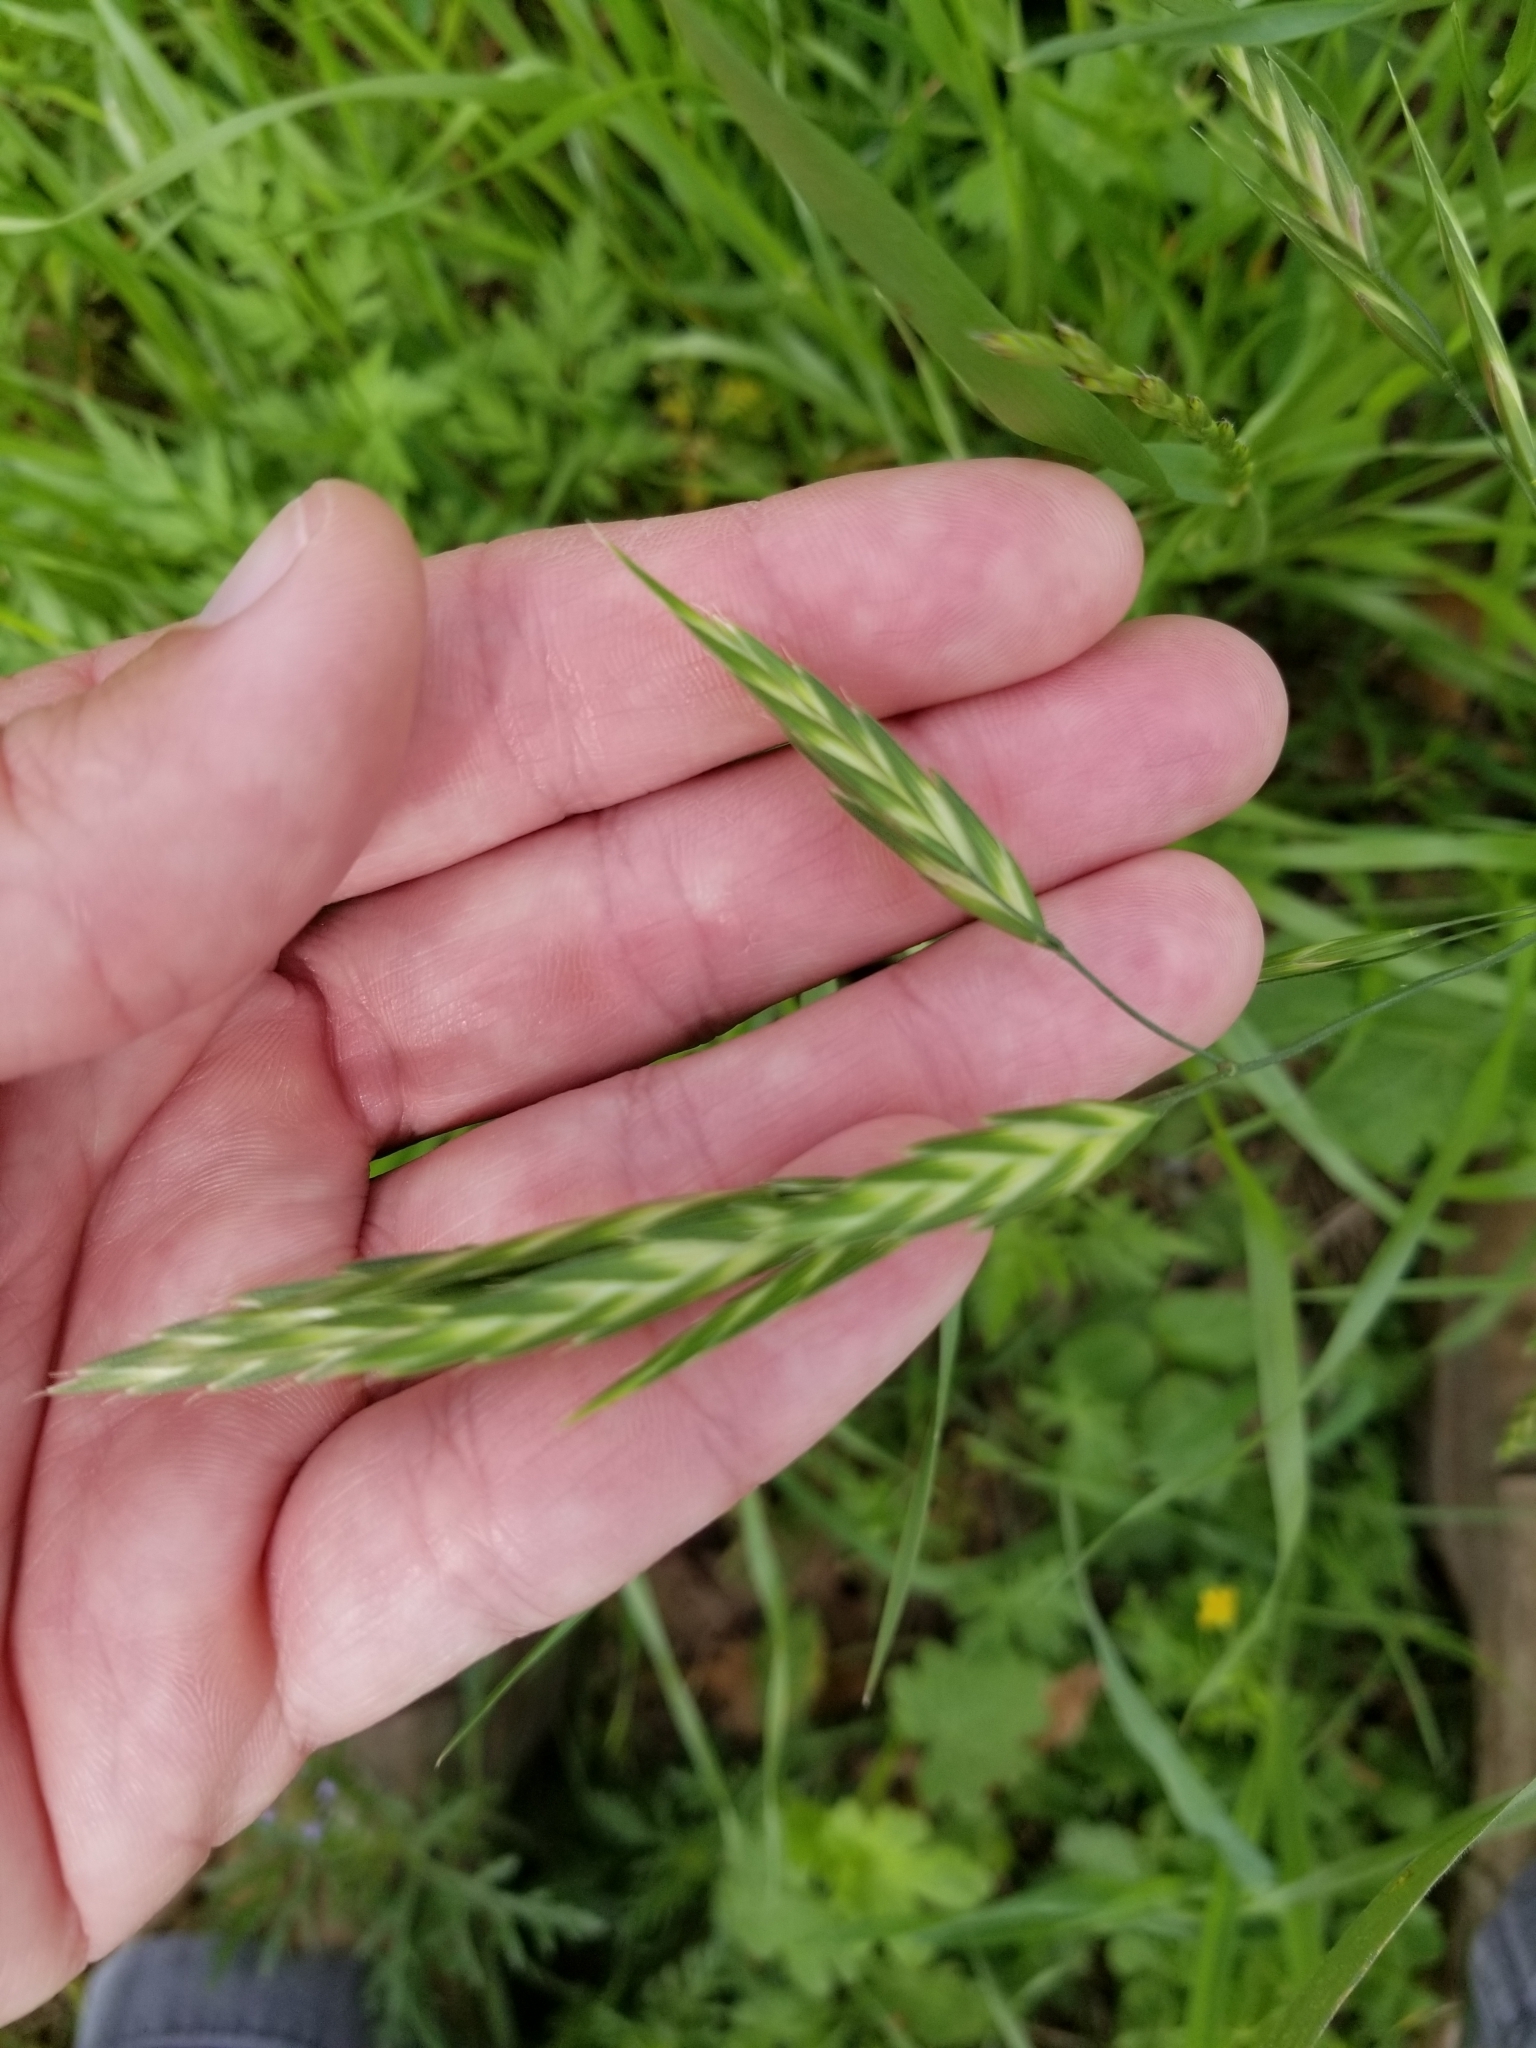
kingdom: Plantae
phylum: Tracheophyta
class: Liliopsida
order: Poales
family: Poaceae
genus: Bromus
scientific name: Bromus catharticus
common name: Rescuegrass
